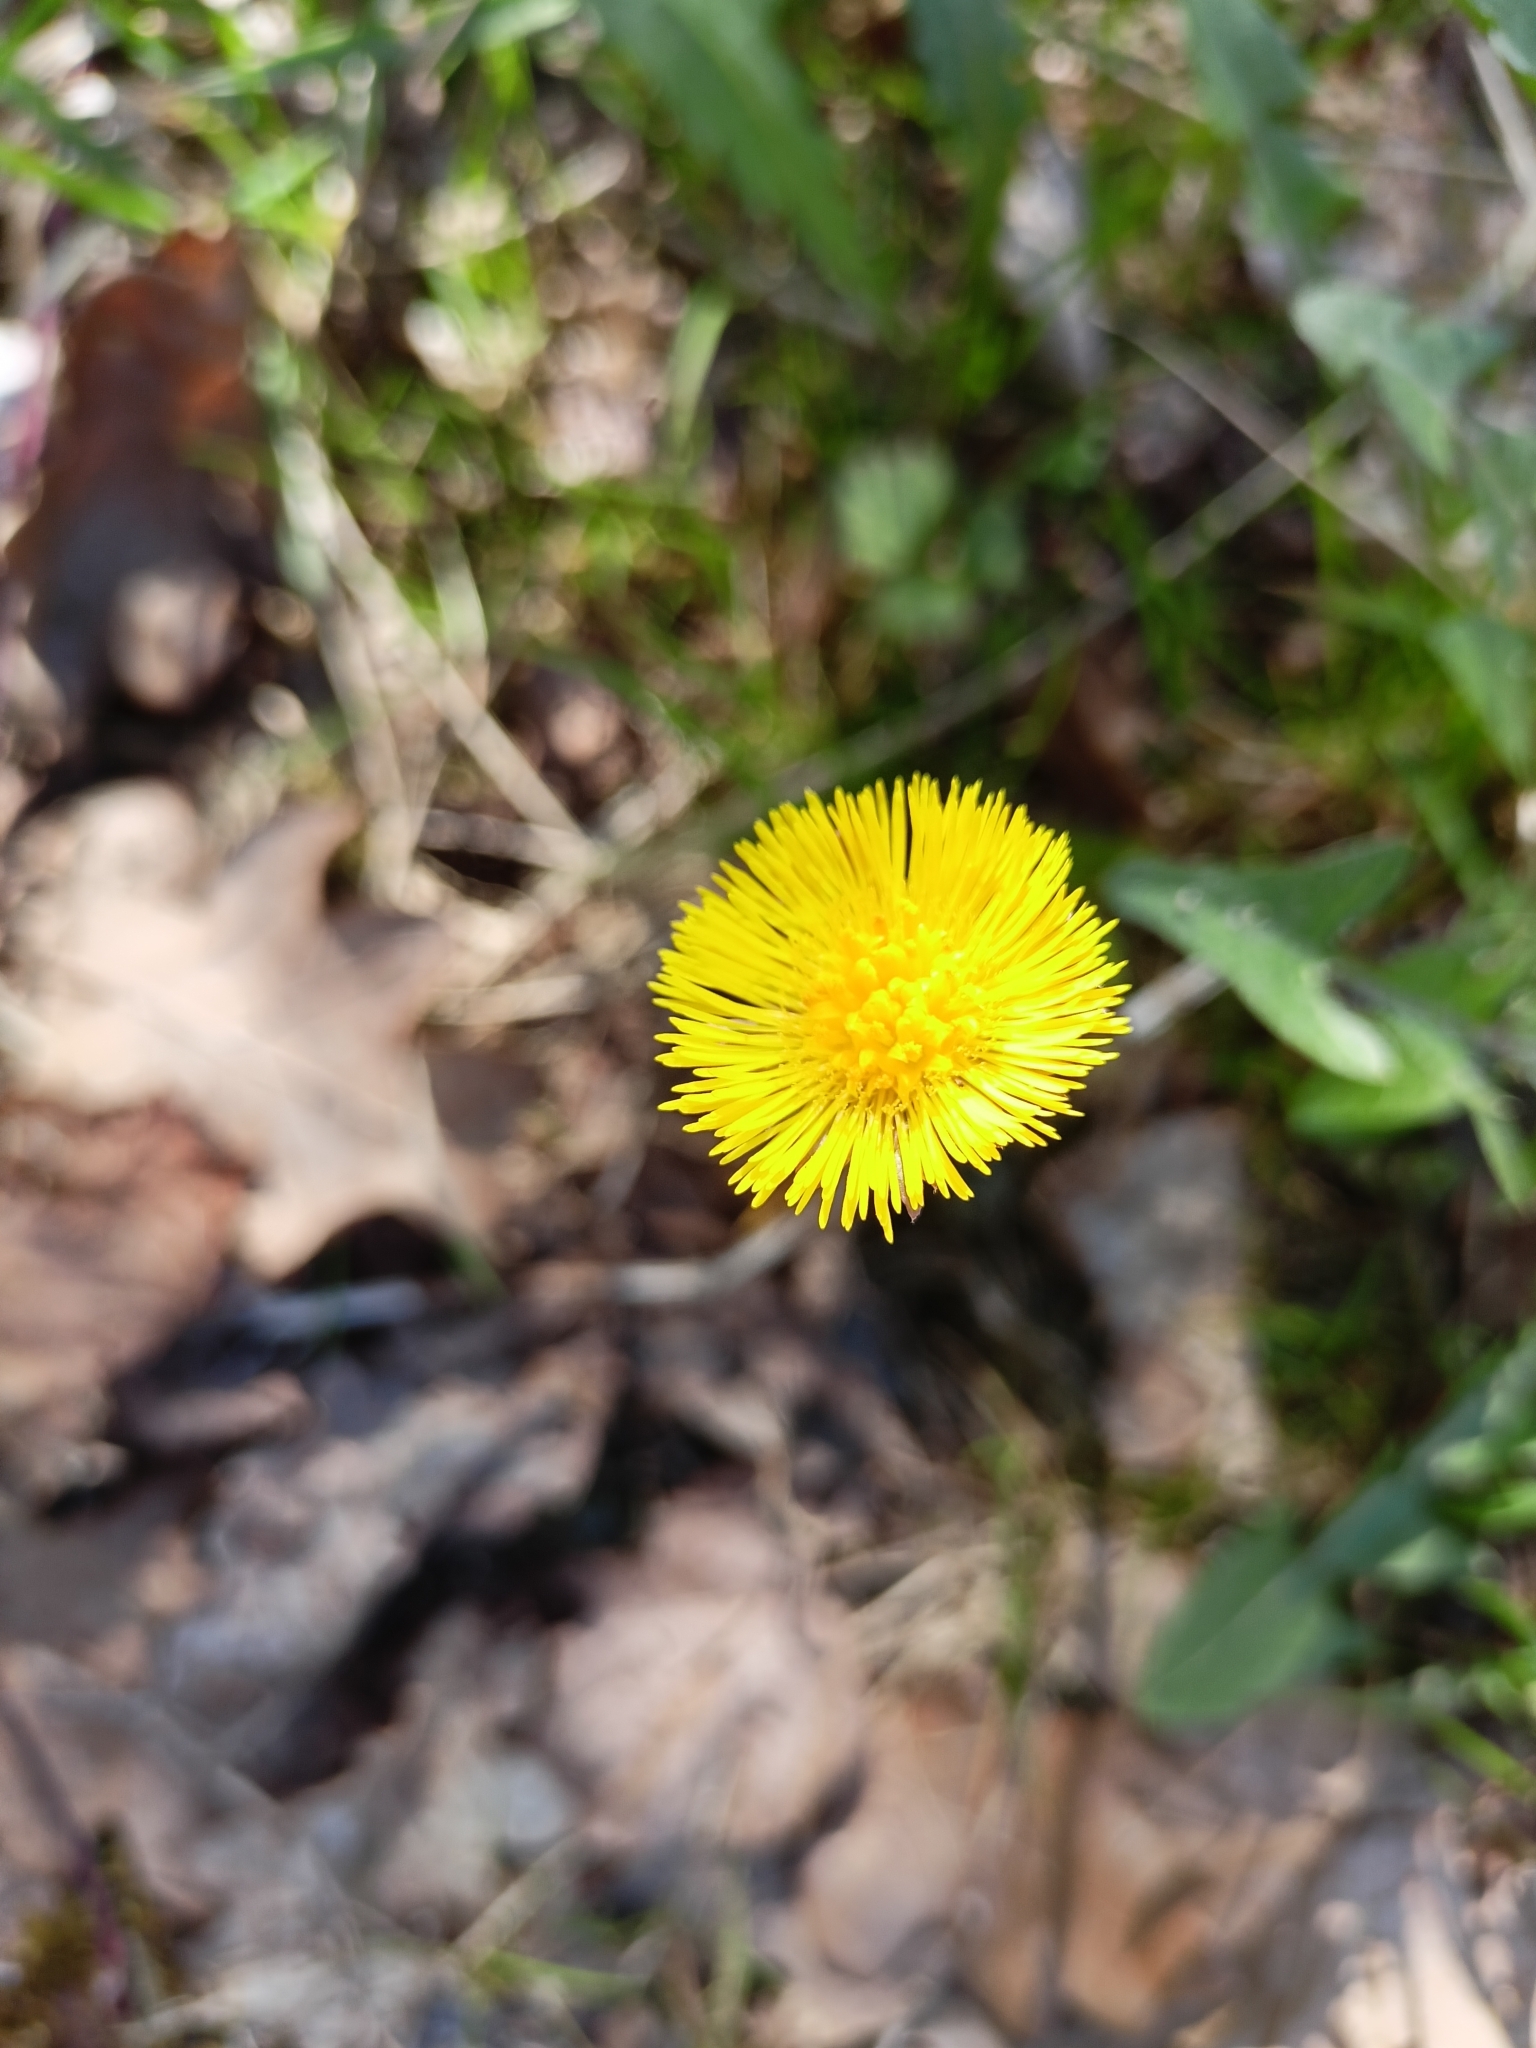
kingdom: Plantae
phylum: Tracheophyta
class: Magnoliopsida
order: Asterales
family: Asteraceae
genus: Tussilago
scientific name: Tussilago farfara
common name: Coltsfoot
